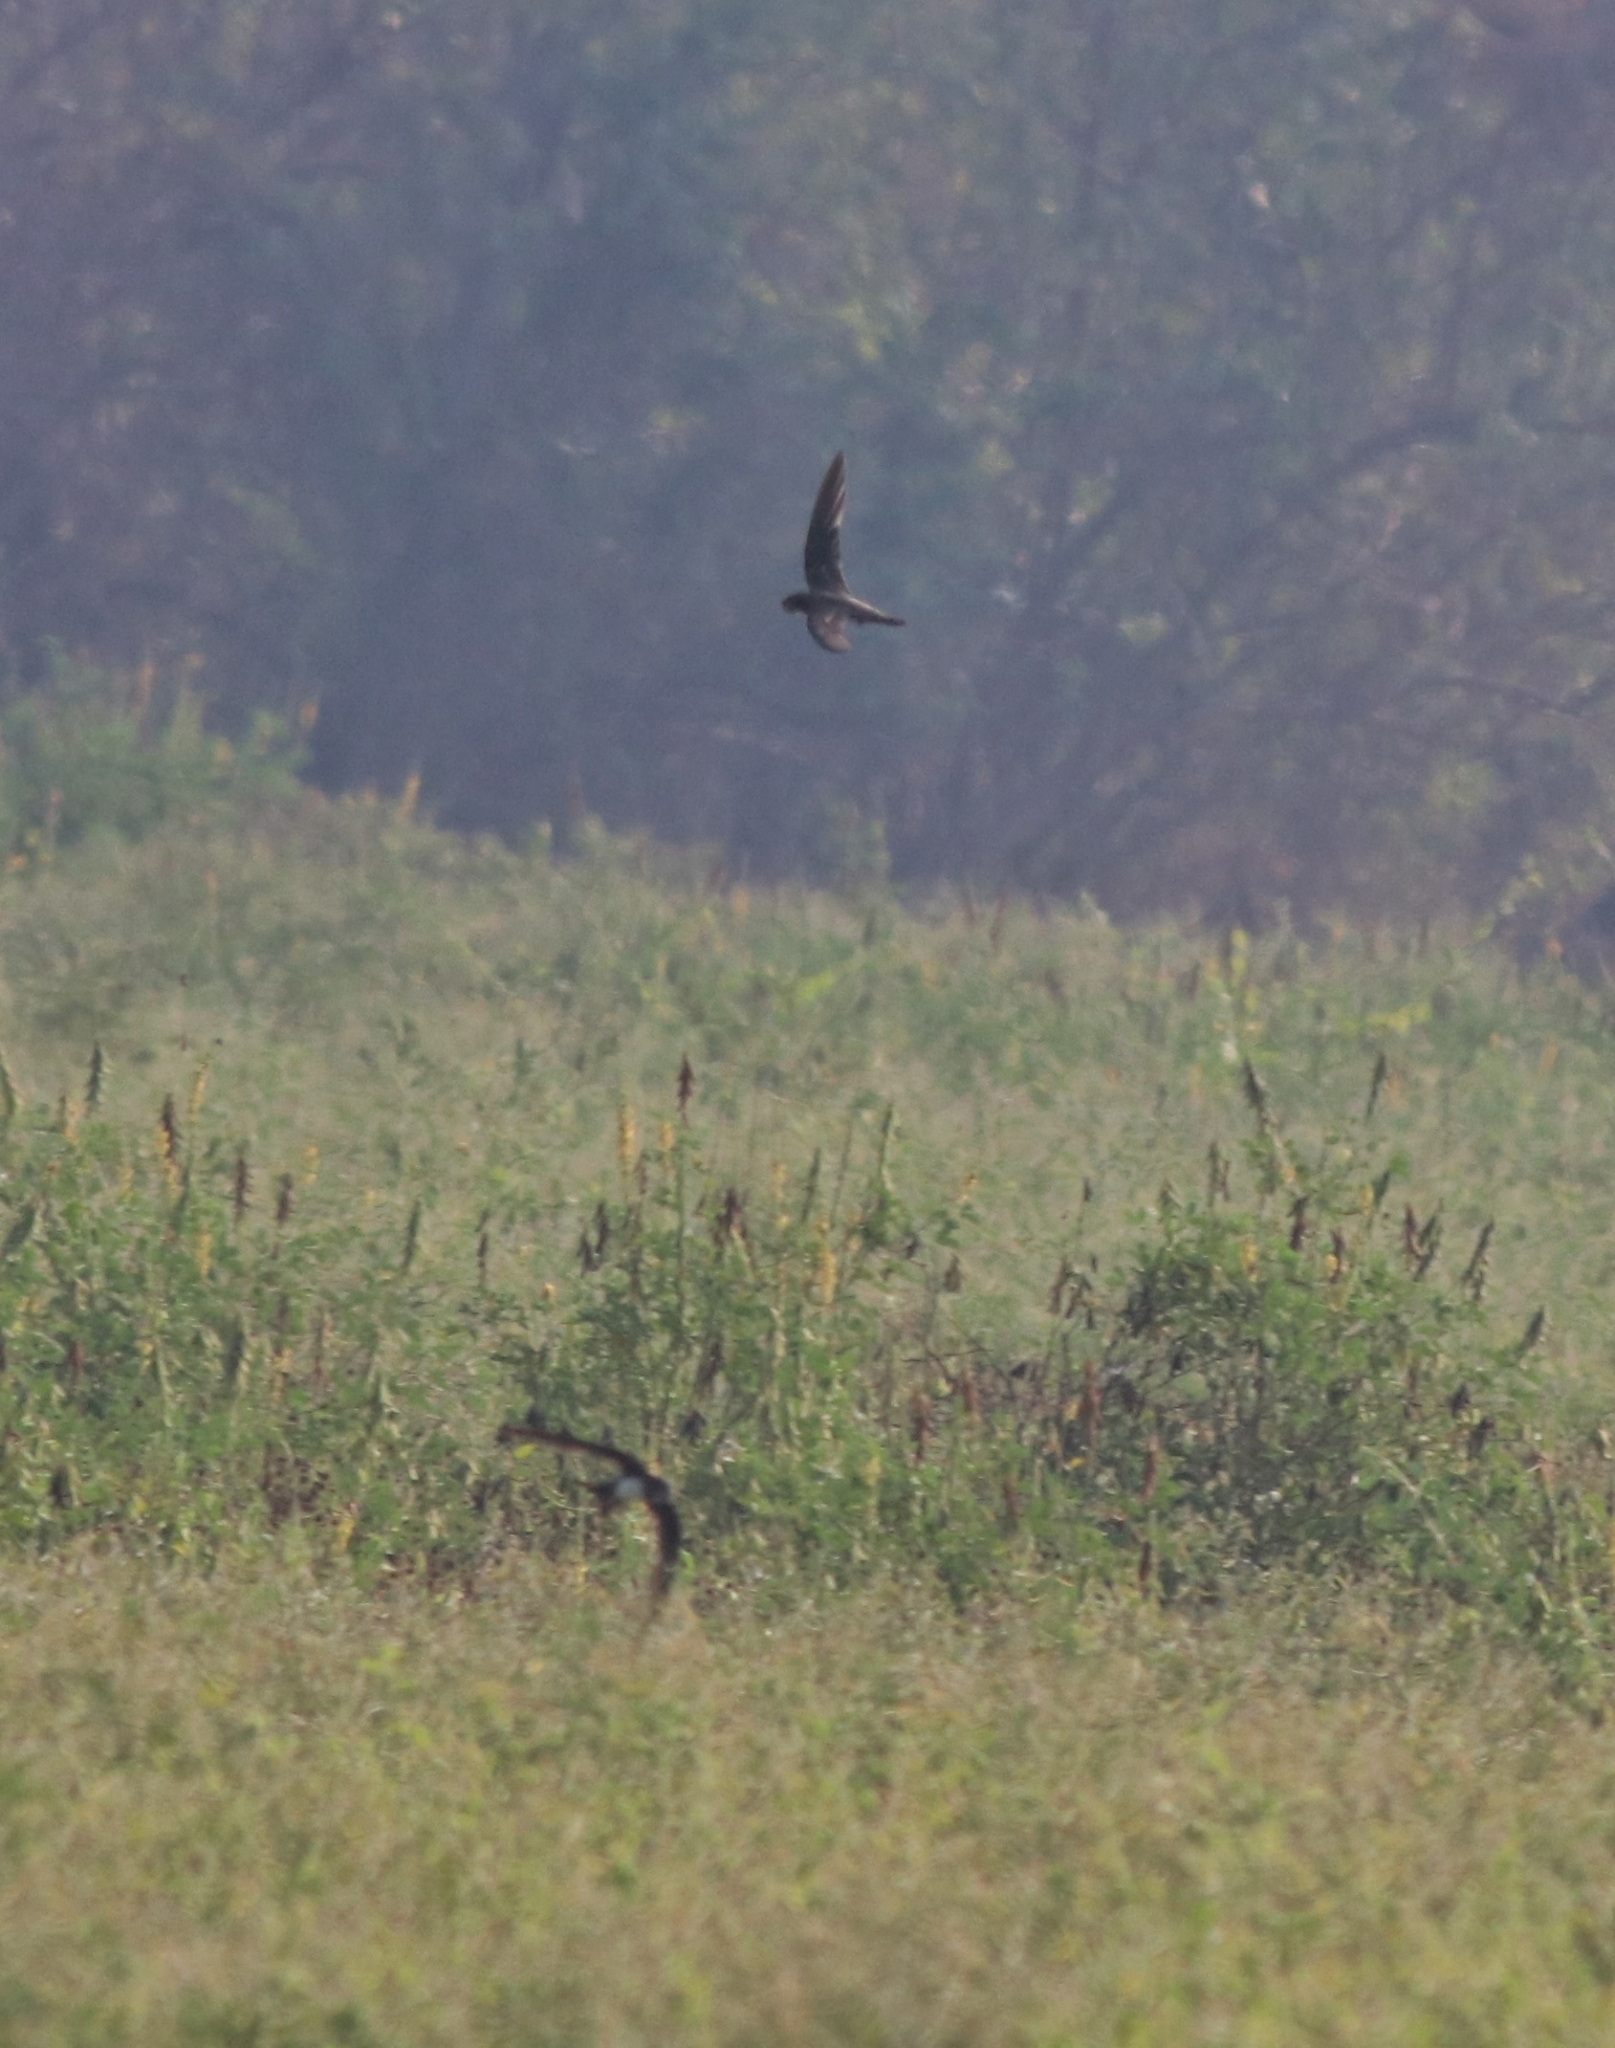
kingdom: Animalia
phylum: Chordata
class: Aves
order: Apodiformes
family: Apodidae
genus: Tachymarptis
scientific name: Tachymarptis melba
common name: Alpine swift
